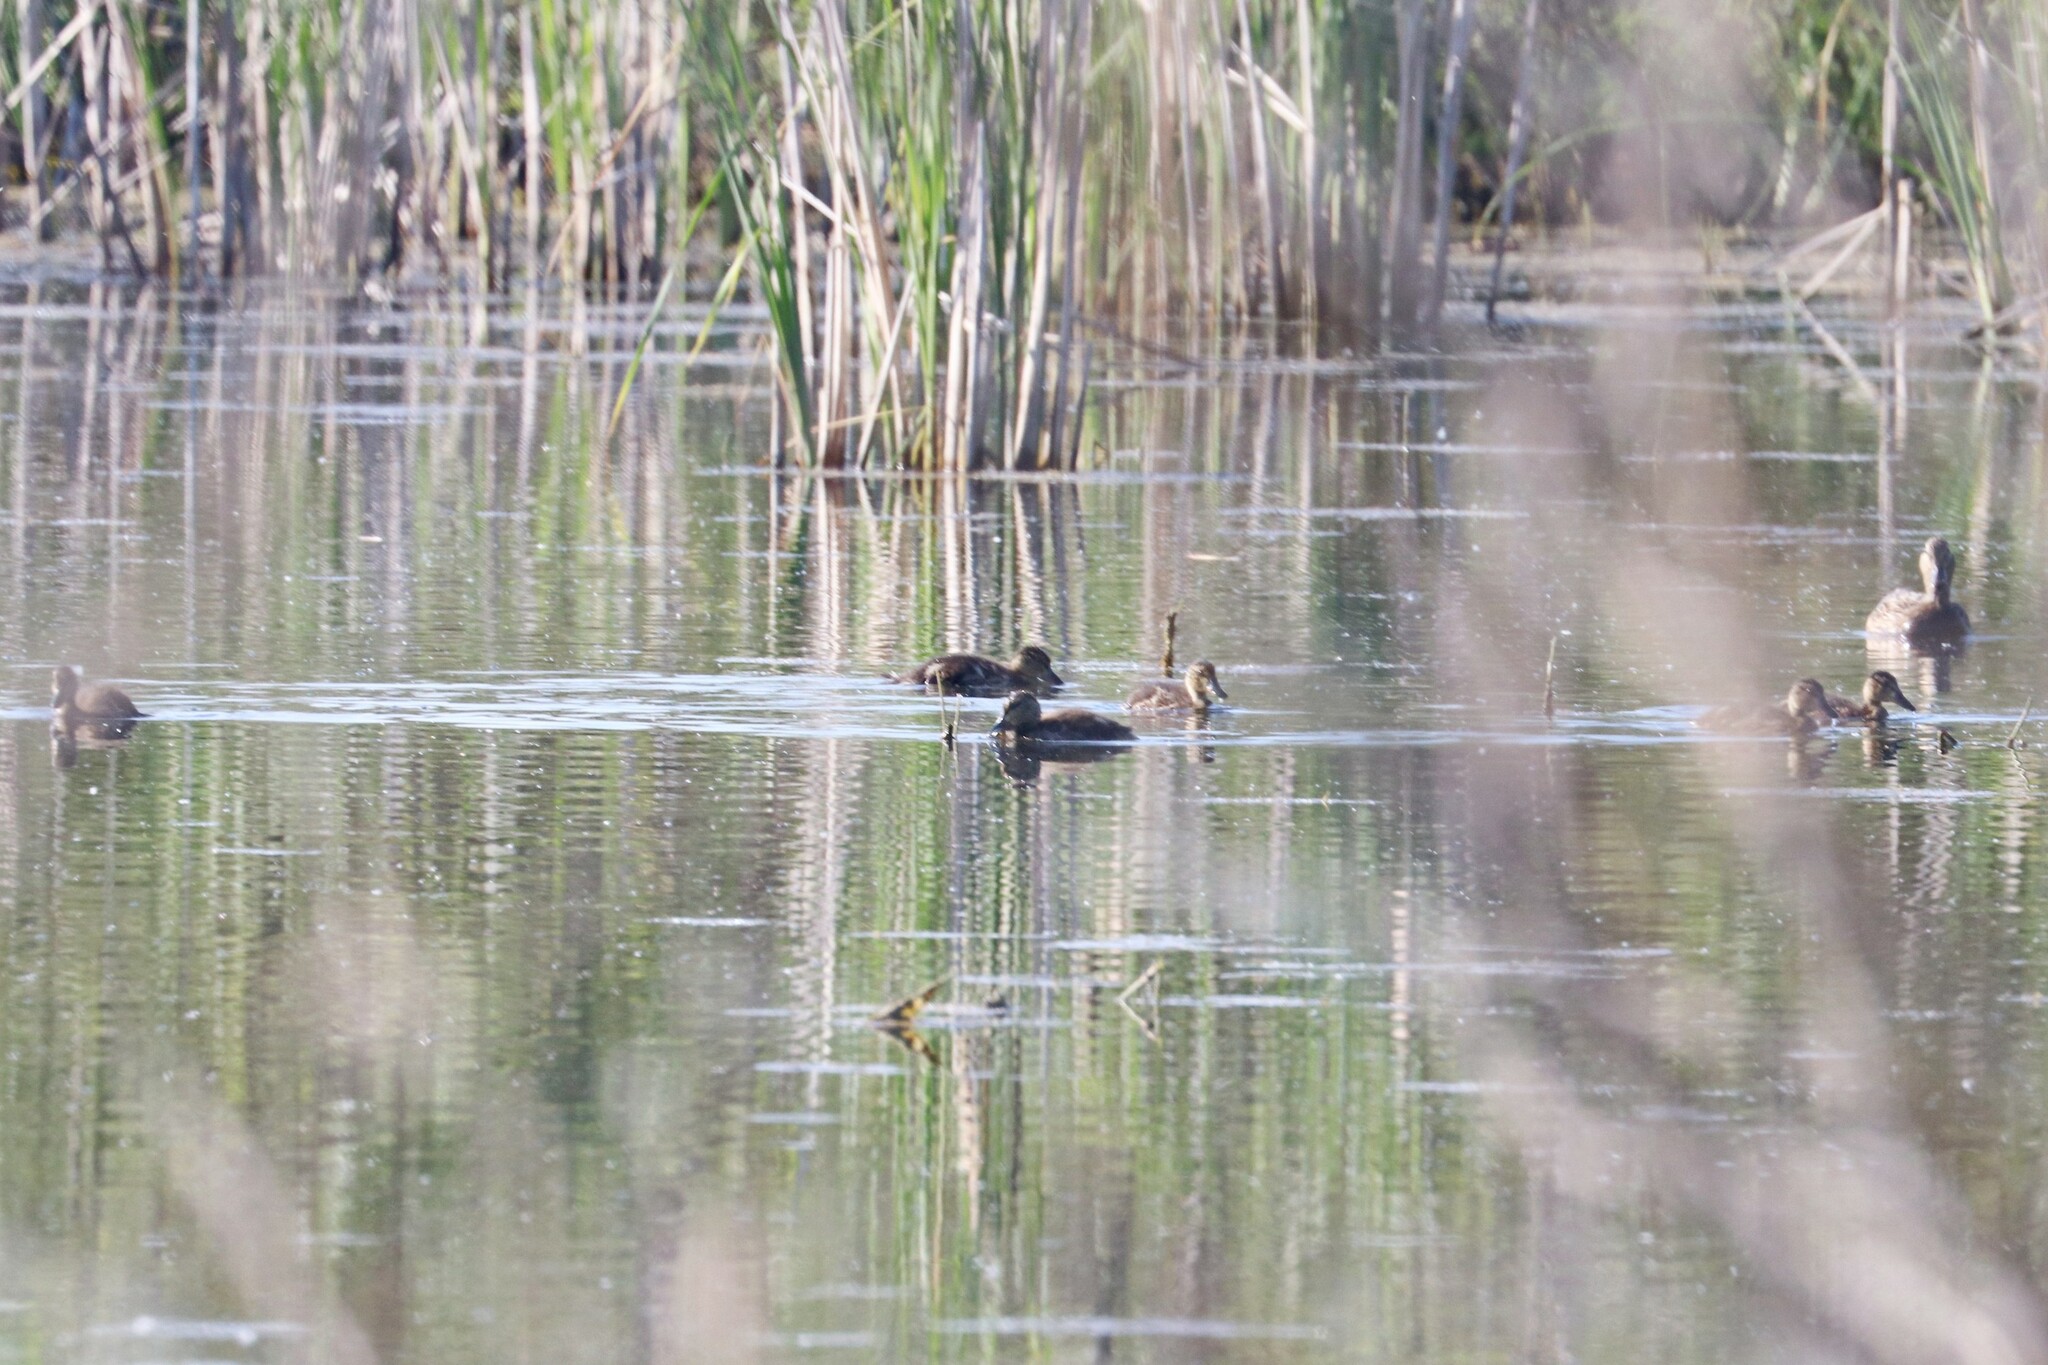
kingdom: Animalia
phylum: Chordata
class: Aves
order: Anseriformes
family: Anatidae
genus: Anas
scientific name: Anas platyrhynchos
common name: Mallard
